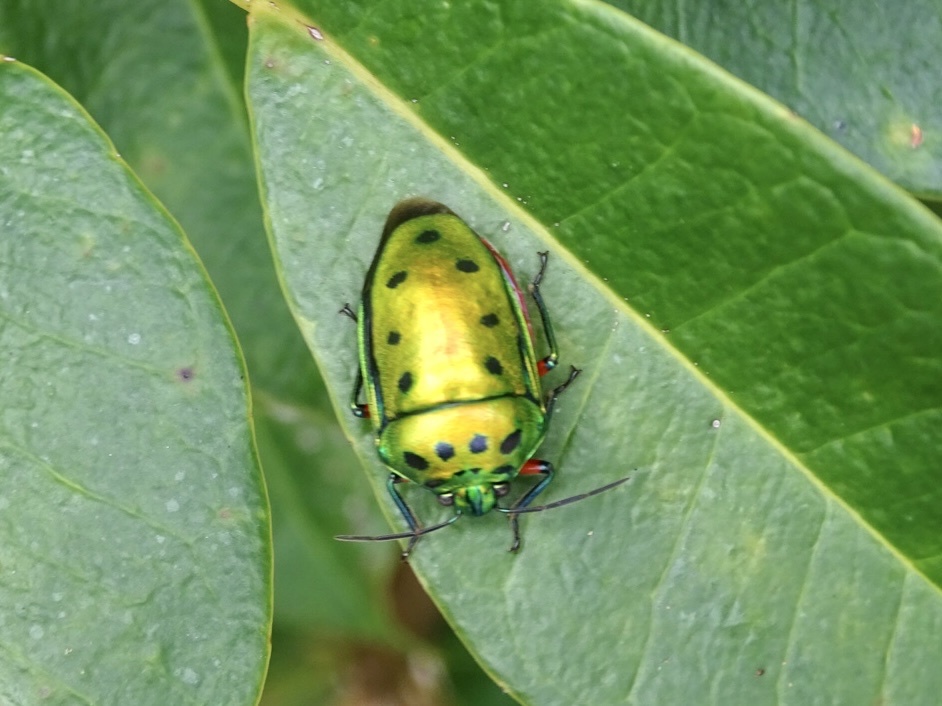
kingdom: Animalia
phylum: Arthropoda
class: Insecta
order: Hemiptera
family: Scutelleridae
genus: Calliphara
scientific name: Calliphara nobilis
